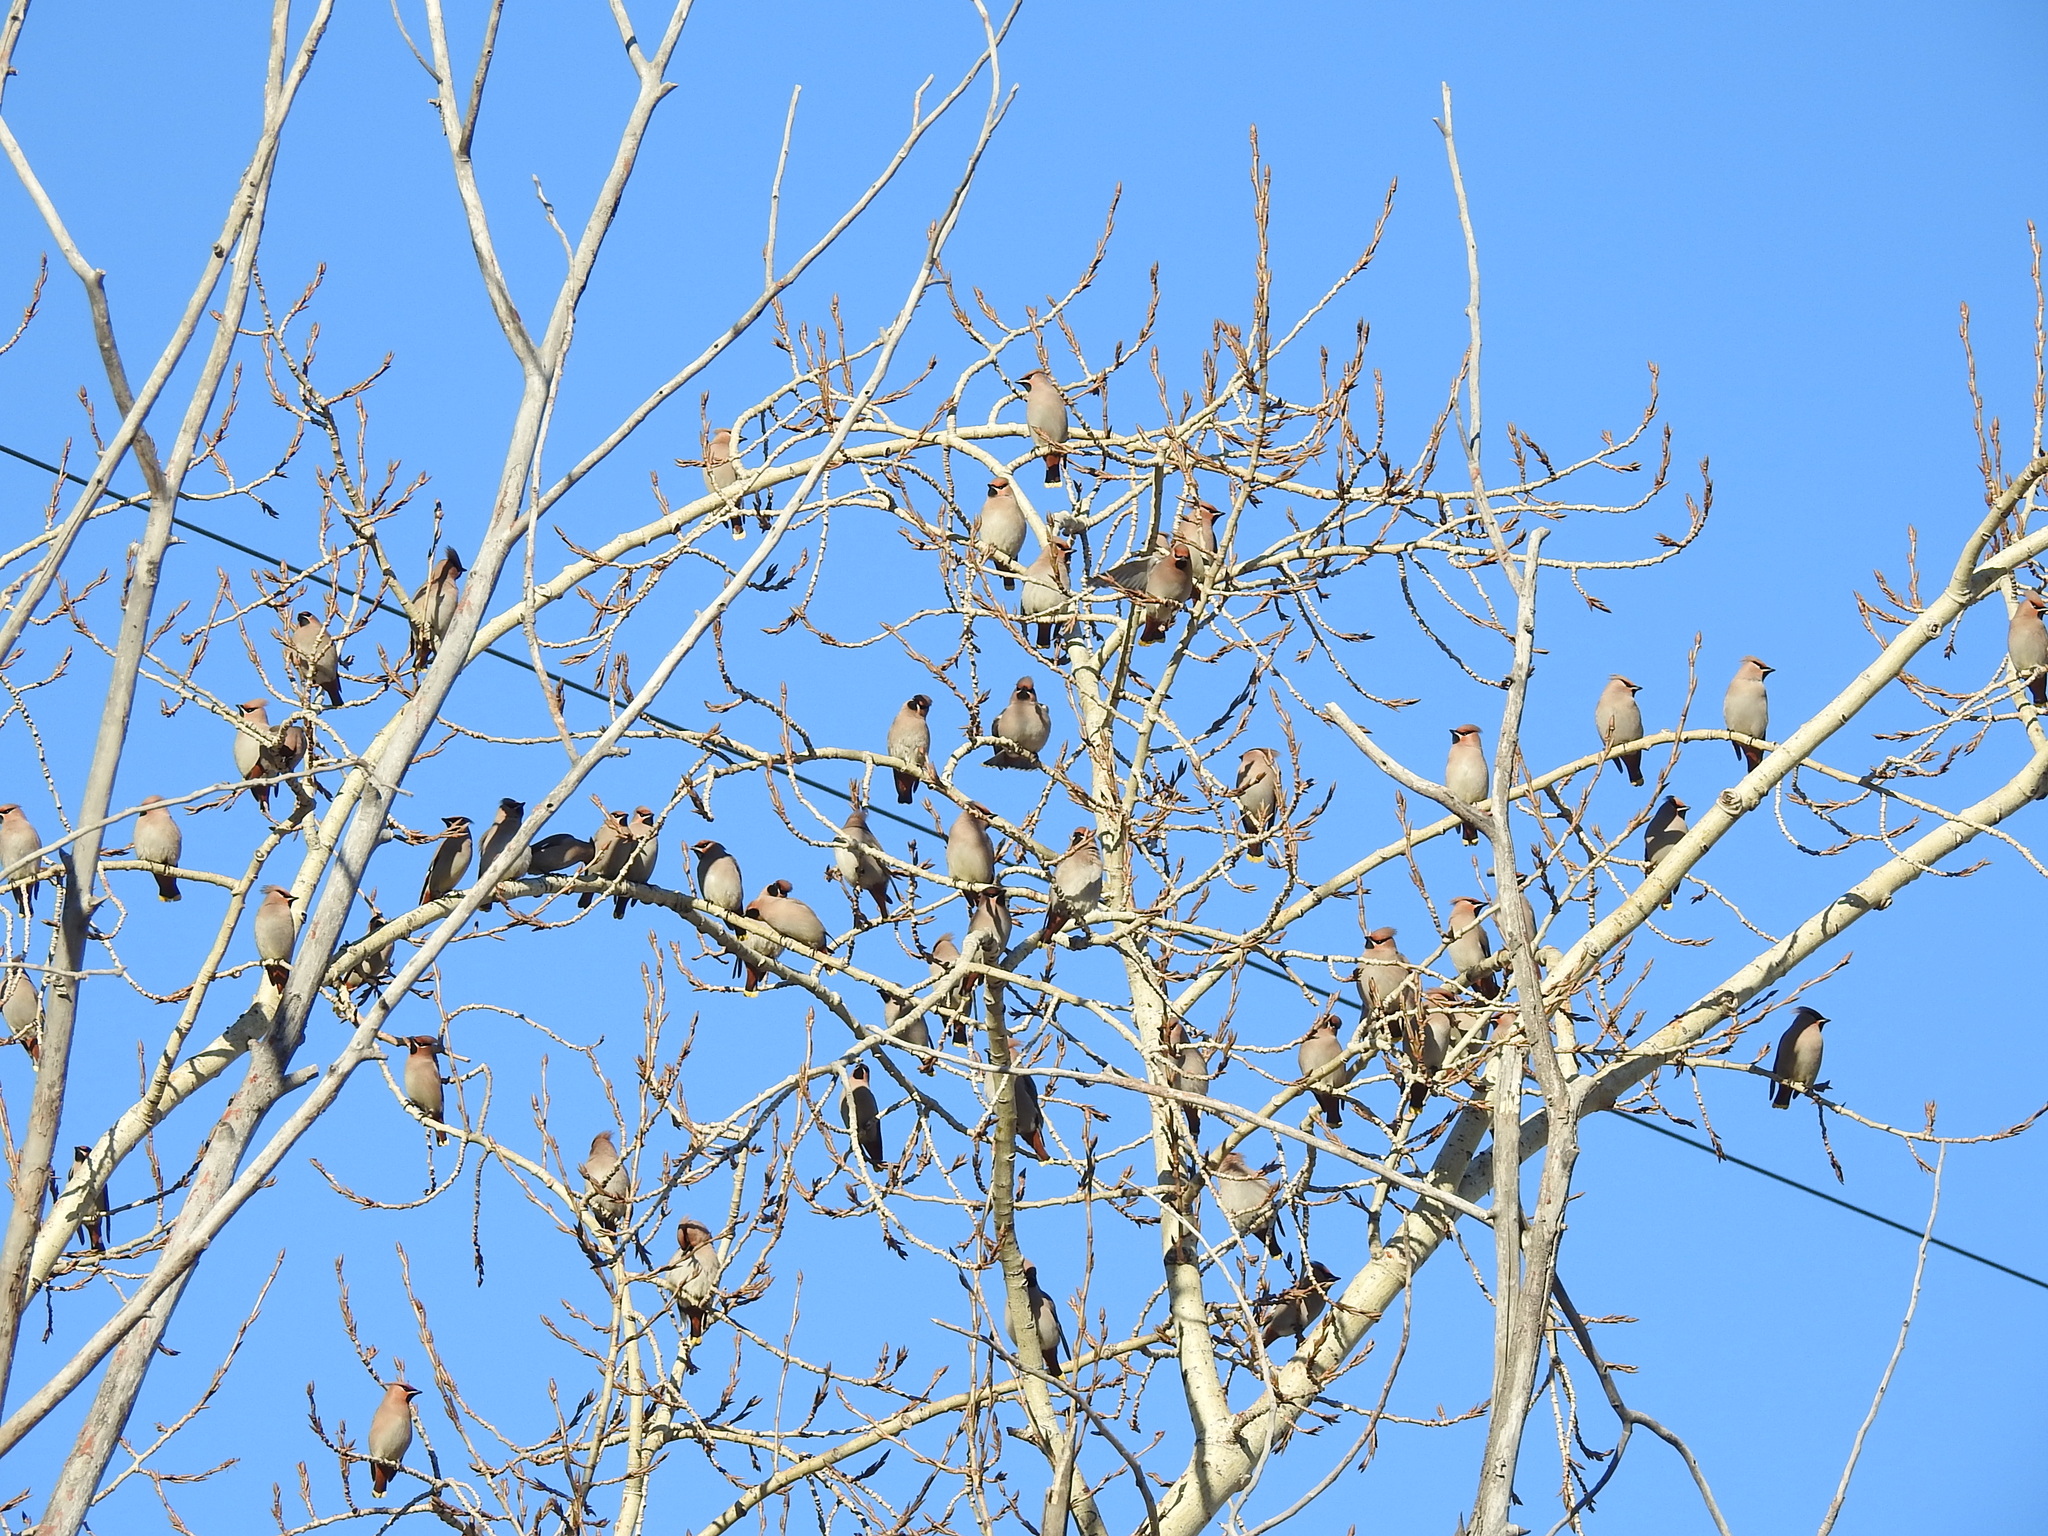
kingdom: Animalia
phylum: Chordata
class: Aves
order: Passeriformes
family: Bombycillidae
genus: Bombycilla
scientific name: Bombycilla garrulus
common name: Bohemian waxwing
